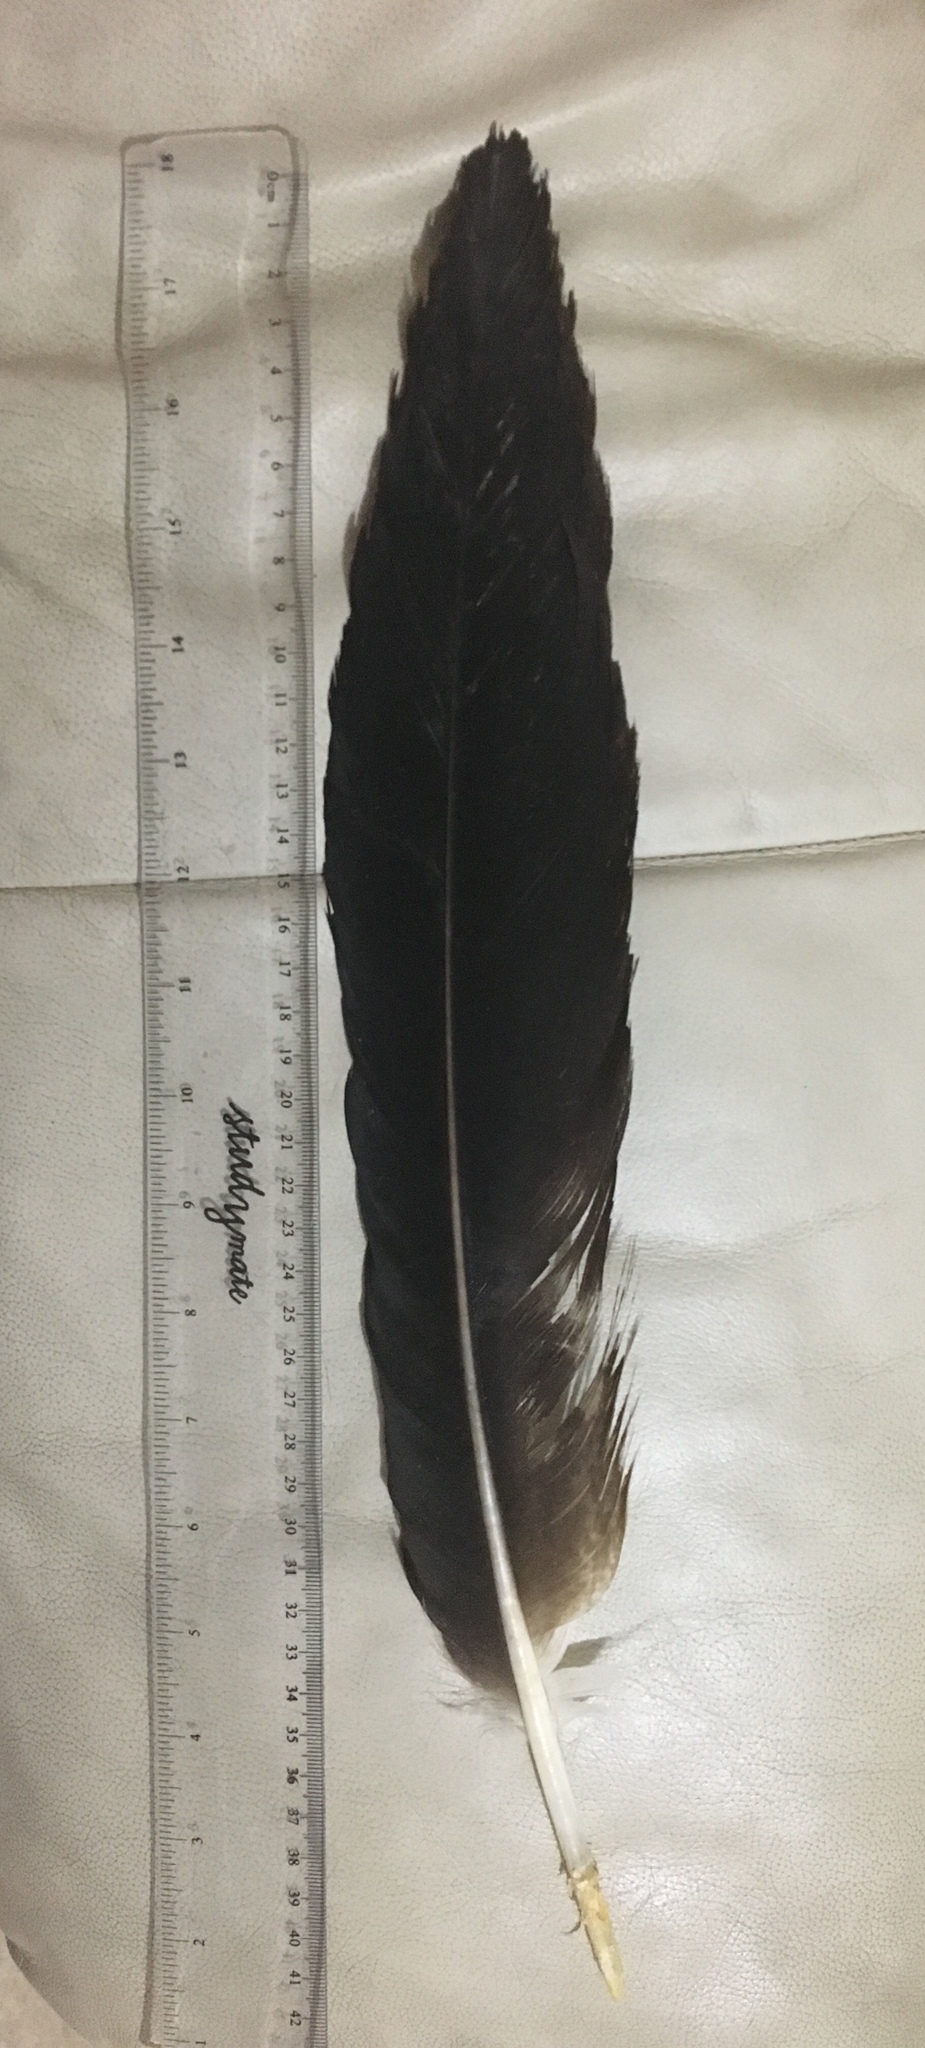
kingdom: Animalia
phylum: Chordata
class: Aves
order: Accipitriformes
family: Accipitridae
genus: Aquila
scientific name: Aquila audax
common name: Wedge-tailed eagle
